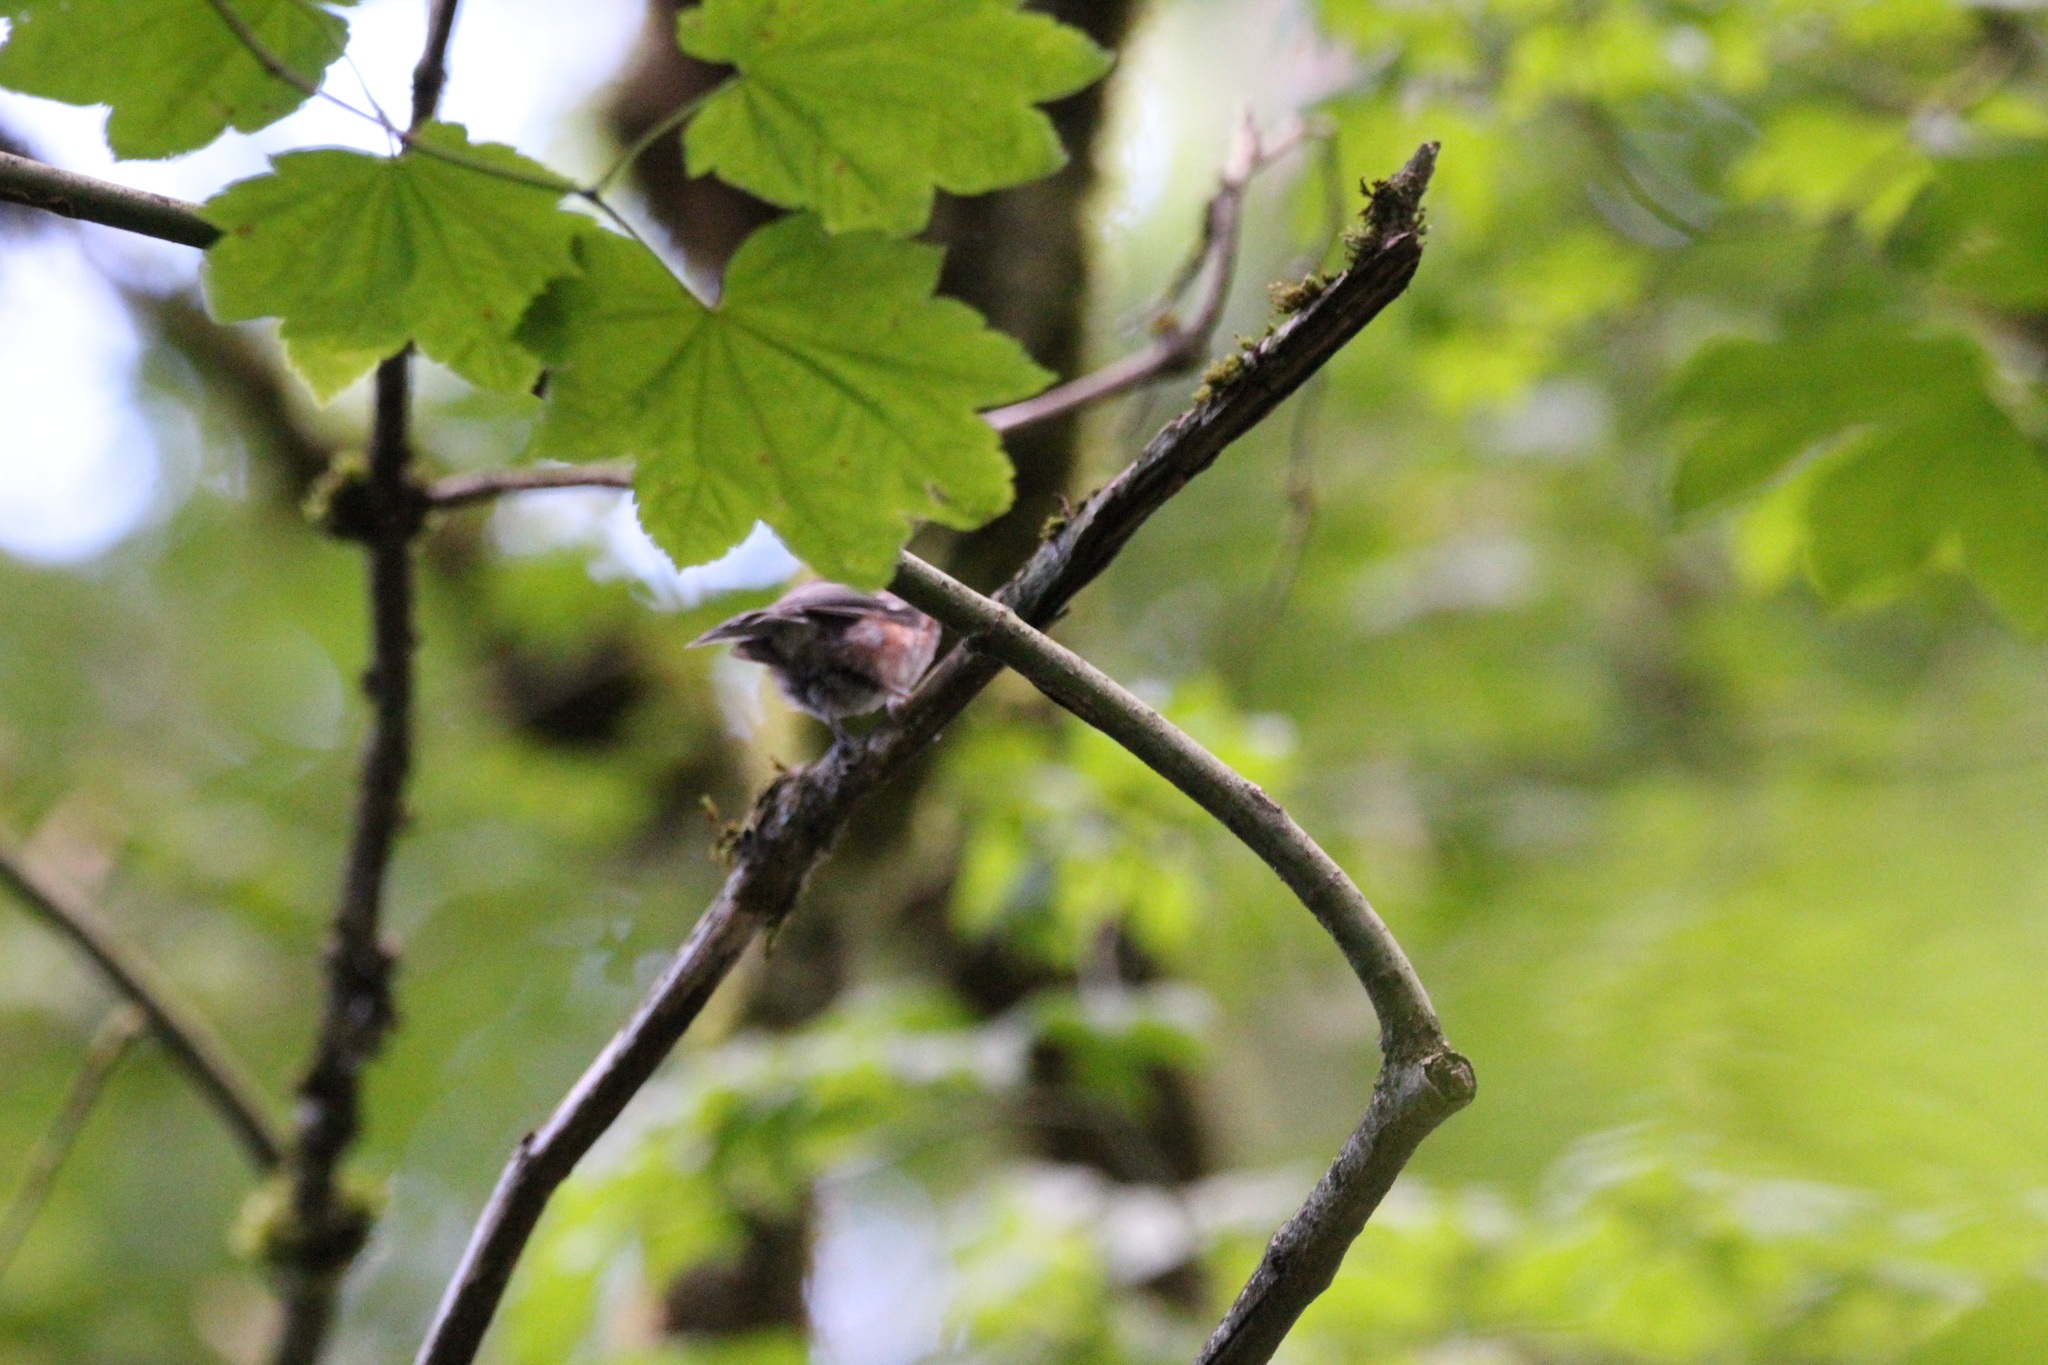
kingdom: Animalia
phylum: Chordata
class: Aves
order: Passeriformes
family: Paridae
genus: Poecile
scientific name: Poecile rufescens
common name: Chestnut-backed chickadee
